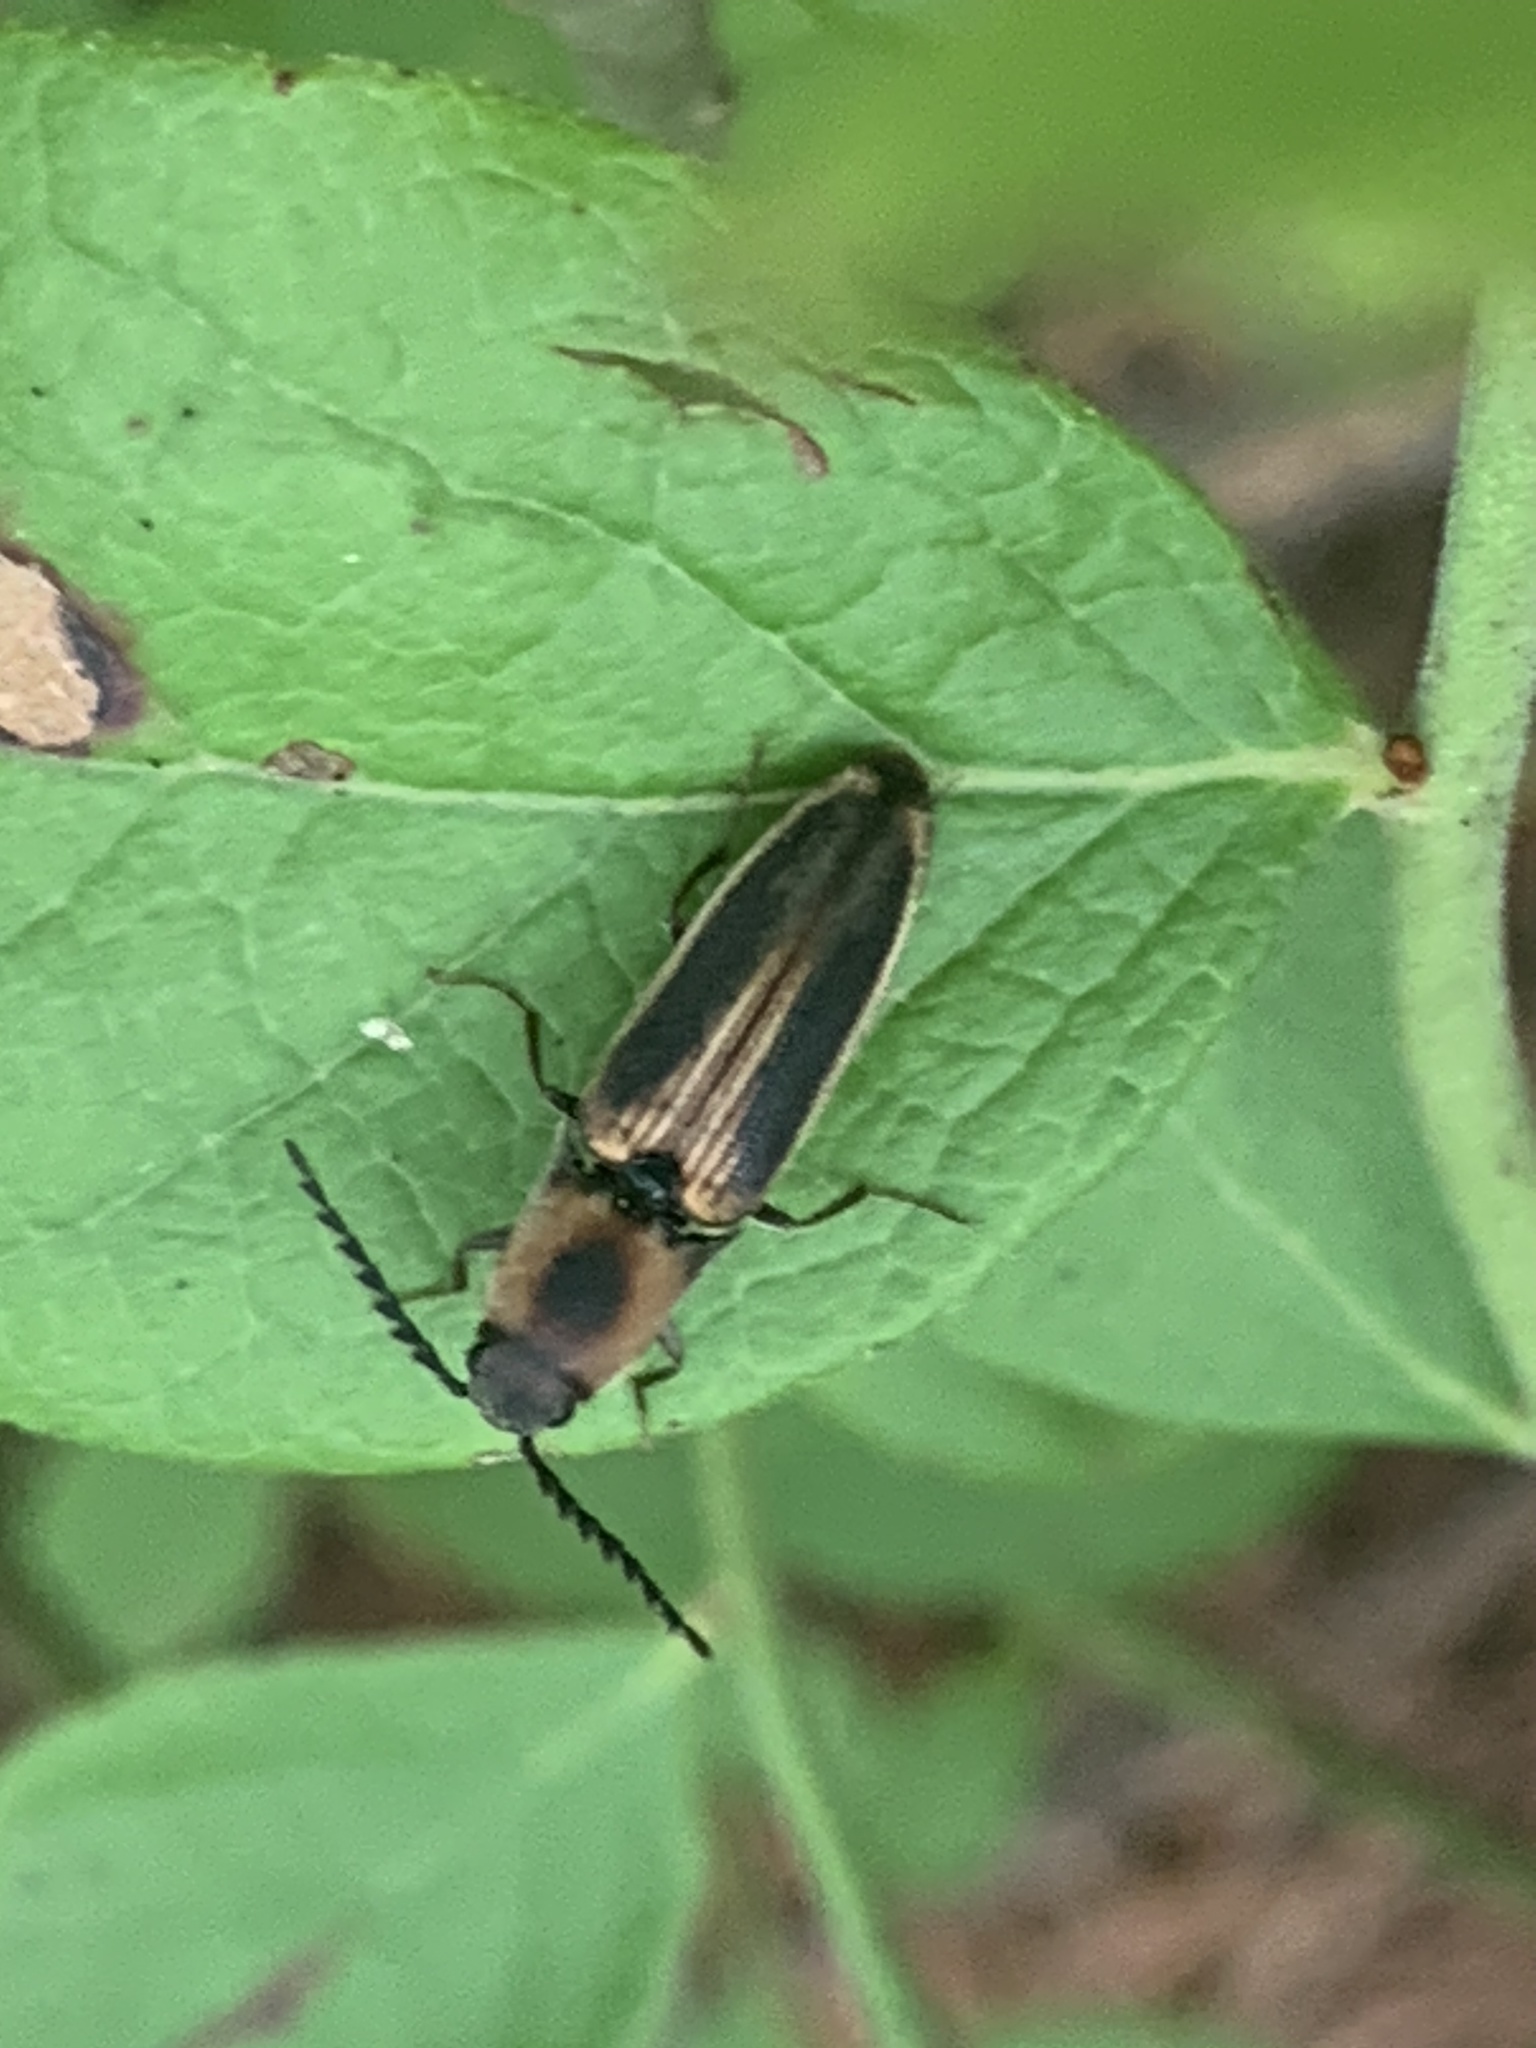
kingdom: Animalia
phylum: Arthropoda
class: Insecta
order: Coleoptera
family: Elateridae
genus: Megapenthes
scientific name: Megapenthes
